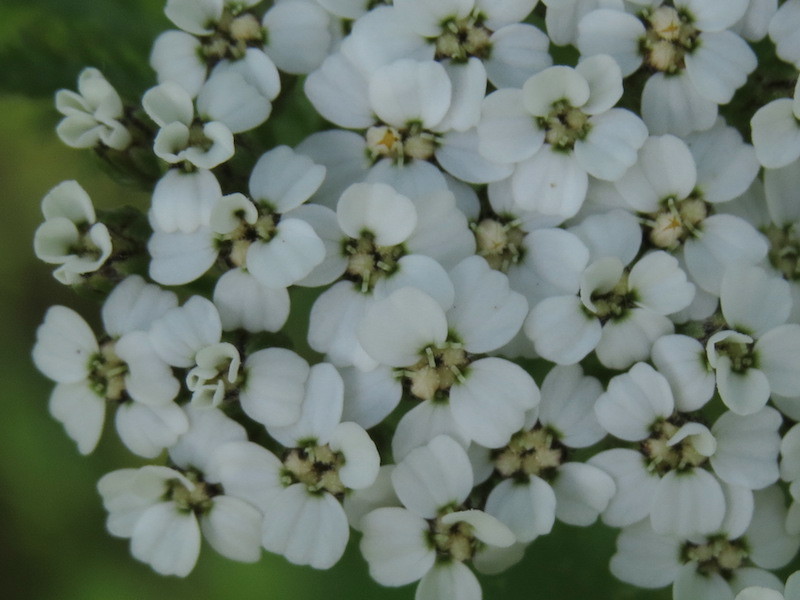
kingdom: Plantae
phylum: Tracheophyta
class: Magnoliopsida
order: Asterales
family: Asteraceae
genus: Achillea
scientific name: Achillea millefolium
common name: Yarrow
